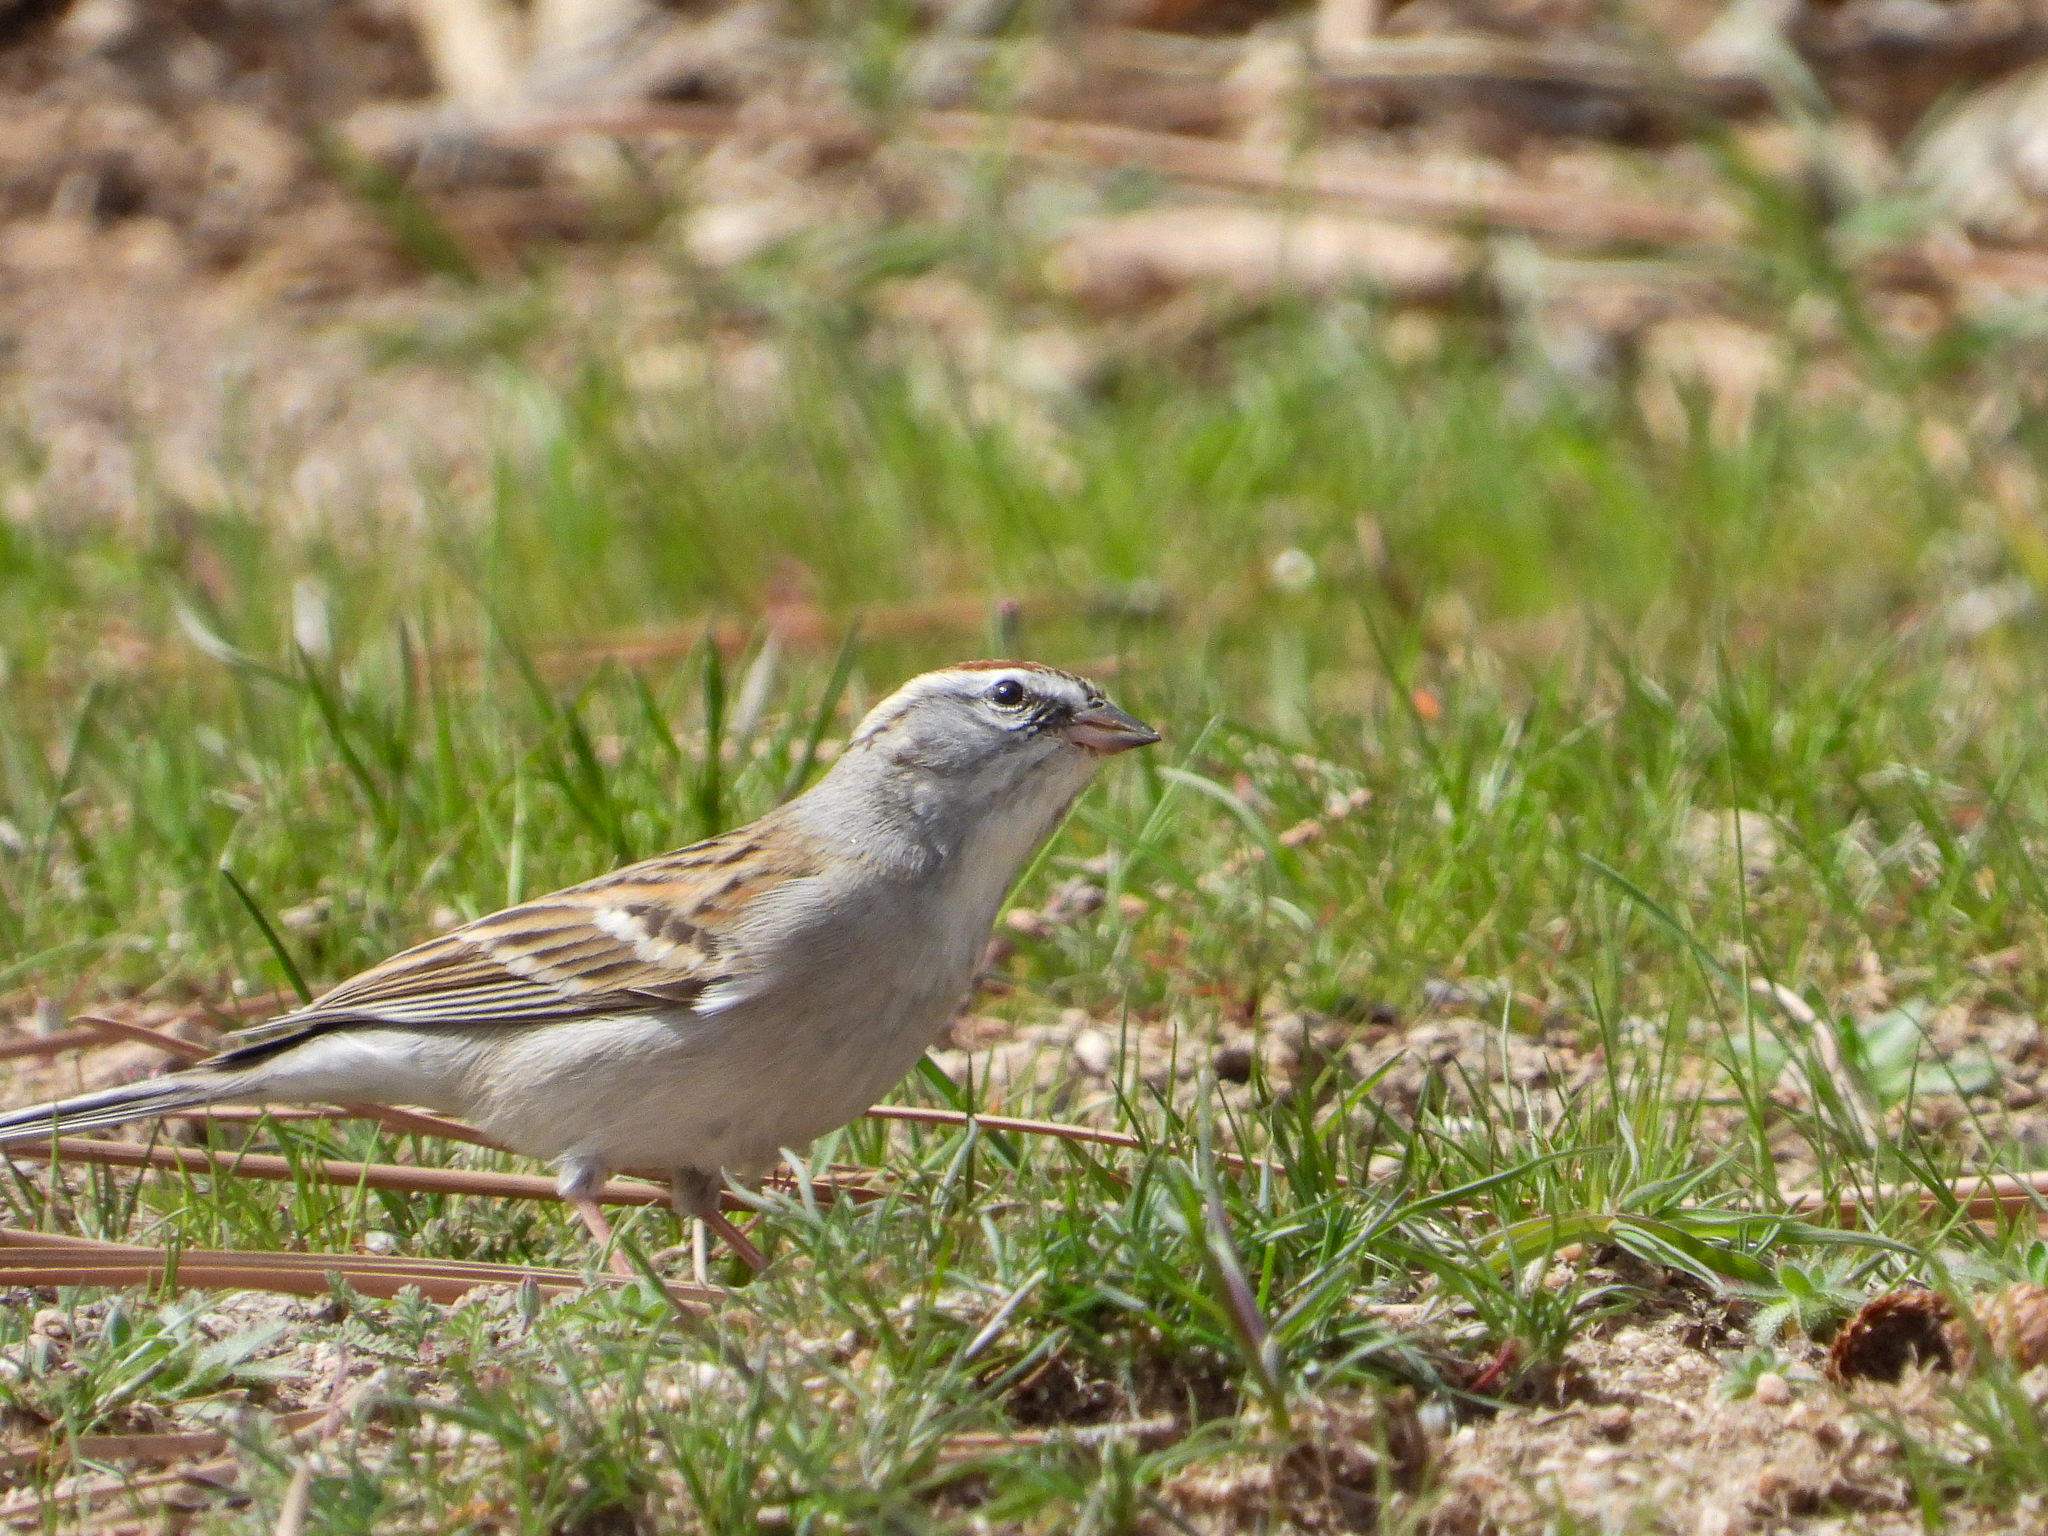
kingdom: Animalia
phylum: Chordata
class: Aves
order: Passeriformes
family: Passerellidae
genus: Spizella
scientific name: Spizella passerina
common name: Chipping sparrow
